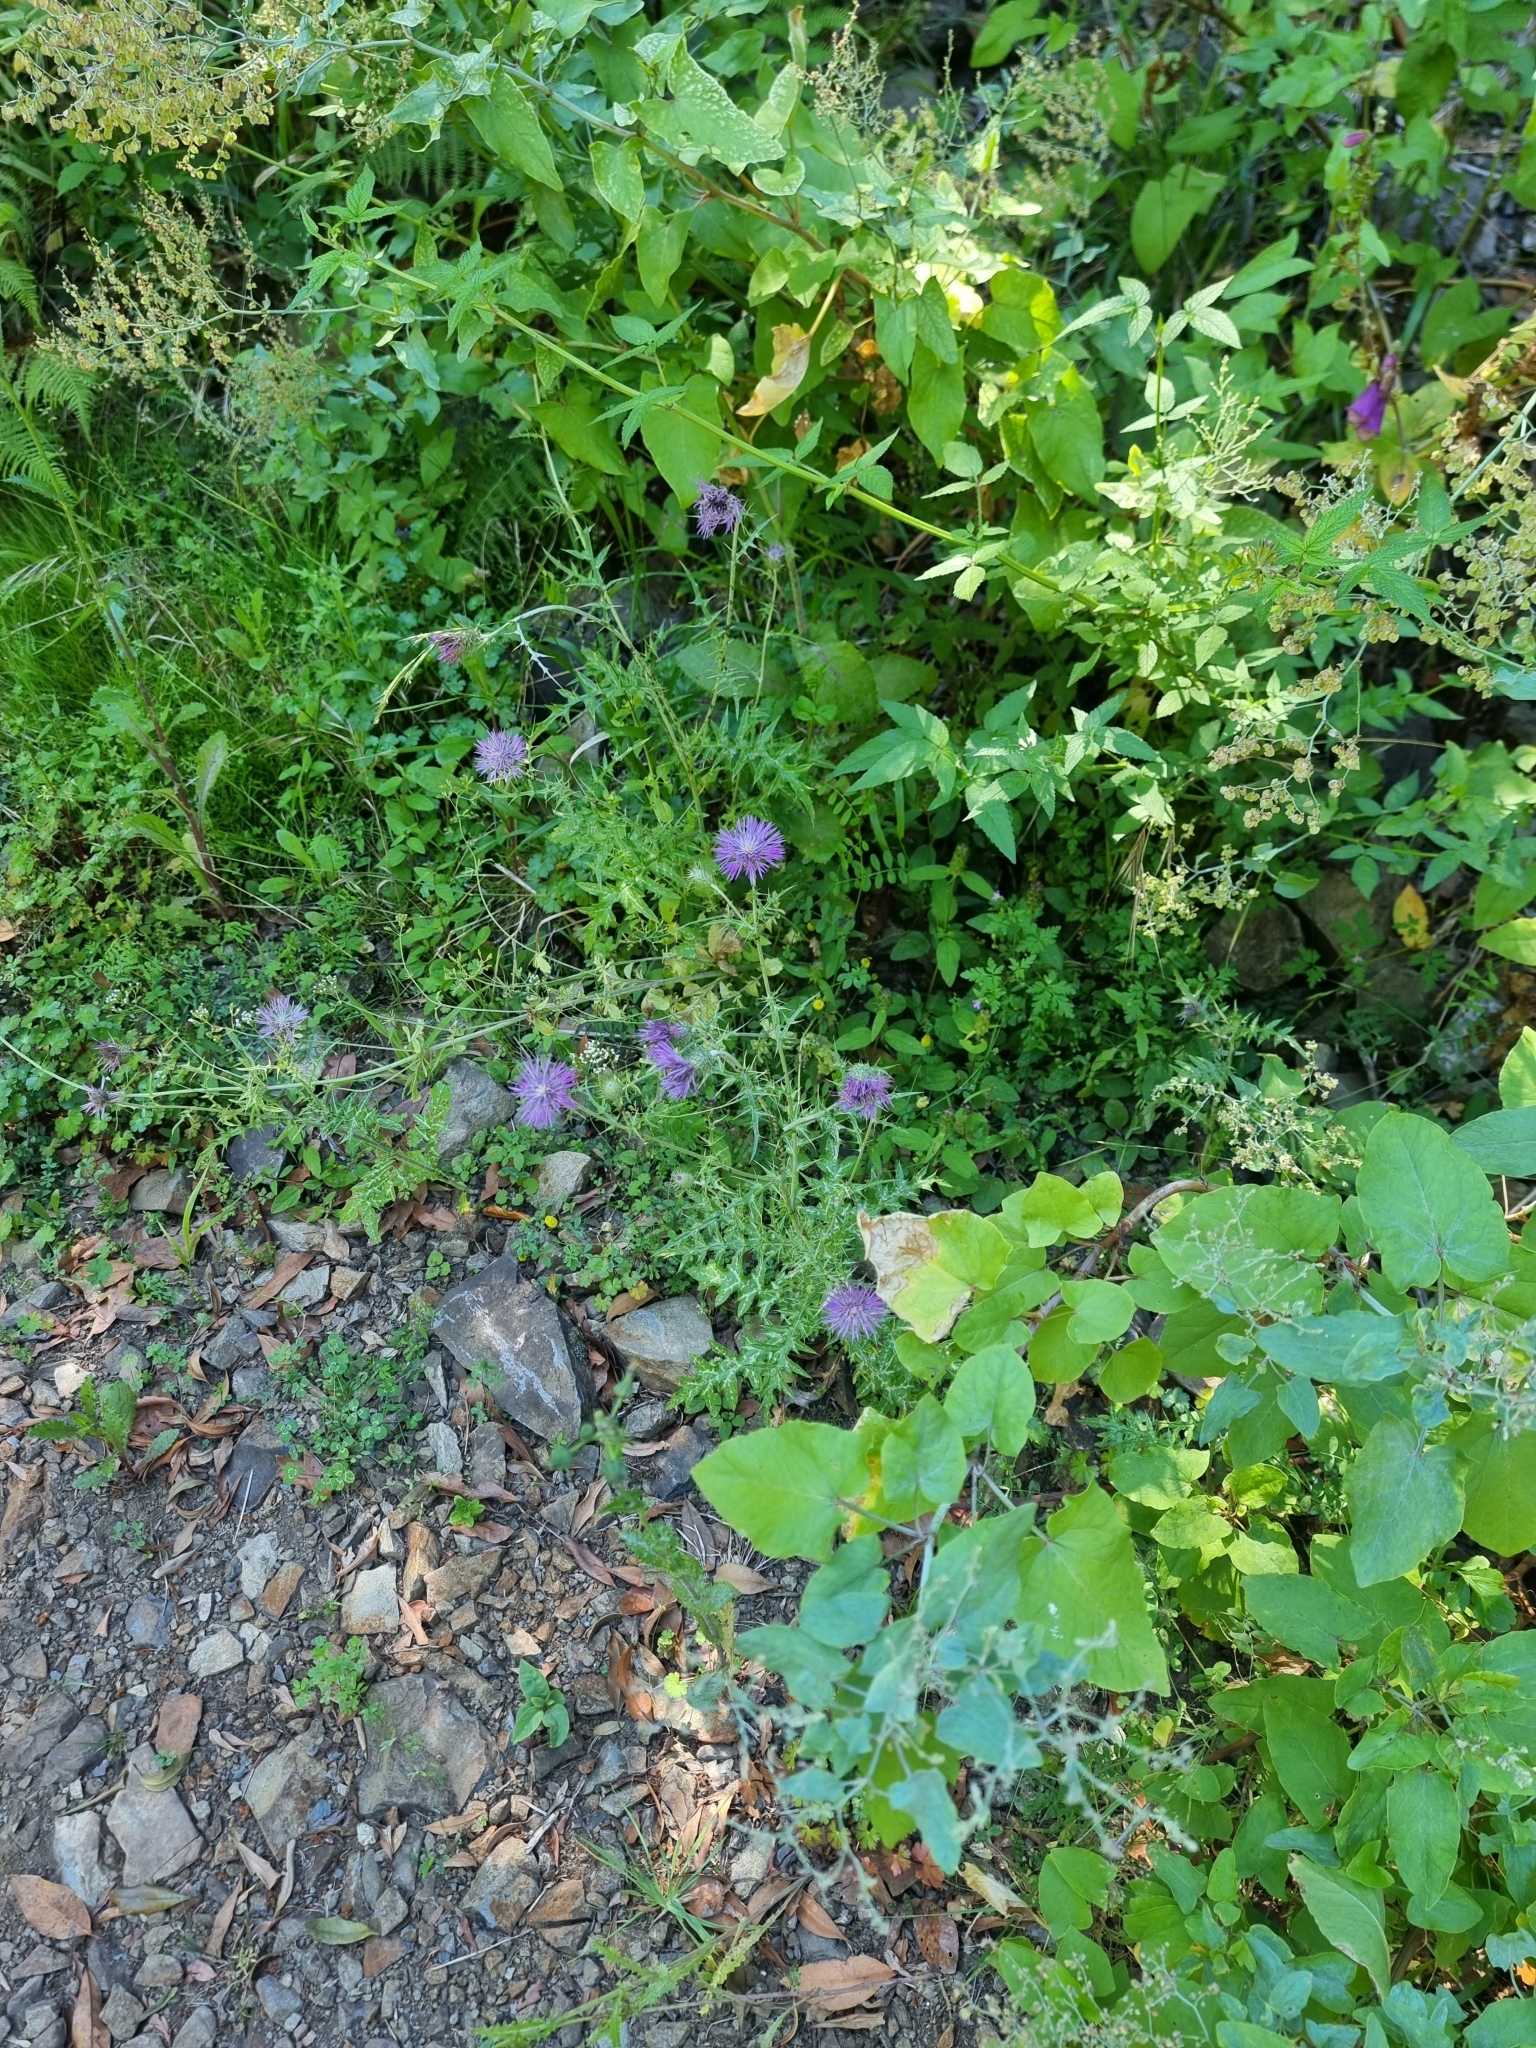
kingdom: Plantae
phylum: Tracheophyta
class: Magnoliopsida
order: Asterales
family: Asteraceae
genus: Galactites
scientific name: Galactites tomentosa
